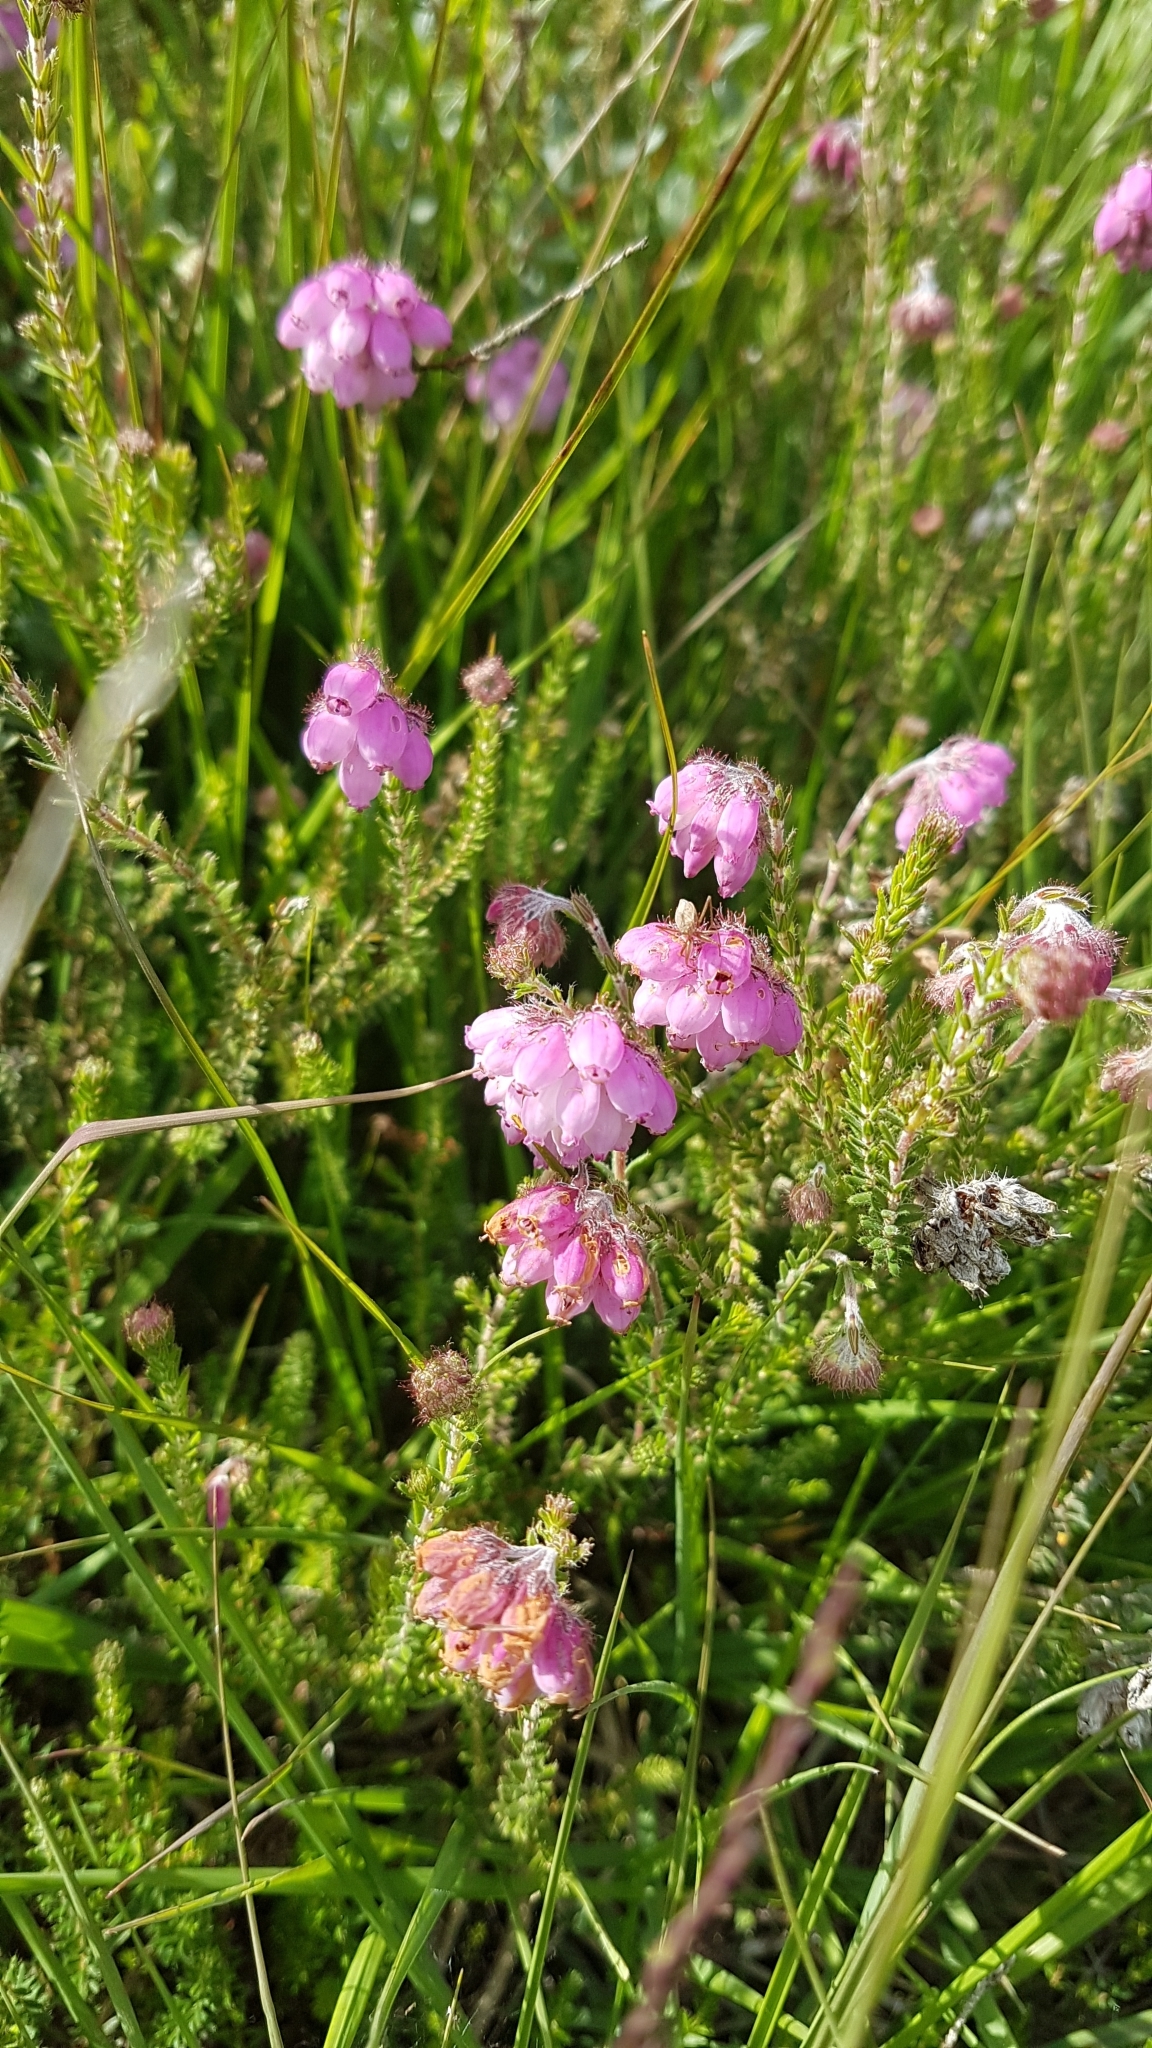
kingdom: Plantae
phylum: Tracheophyta
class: Magnoliopsida
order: Ericales
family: Ericaceae
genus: Erica
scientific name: Erica tetralix
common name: Cross-leaved heath
